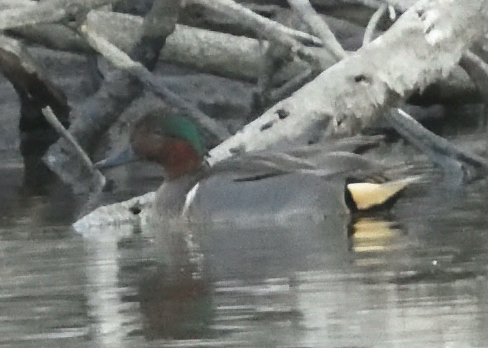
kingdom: Animalia
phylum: Chordata
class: Aves
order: Anseriformes
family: Anatidae
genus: Anas
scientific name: Anas crecca
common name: Eurasian teal
